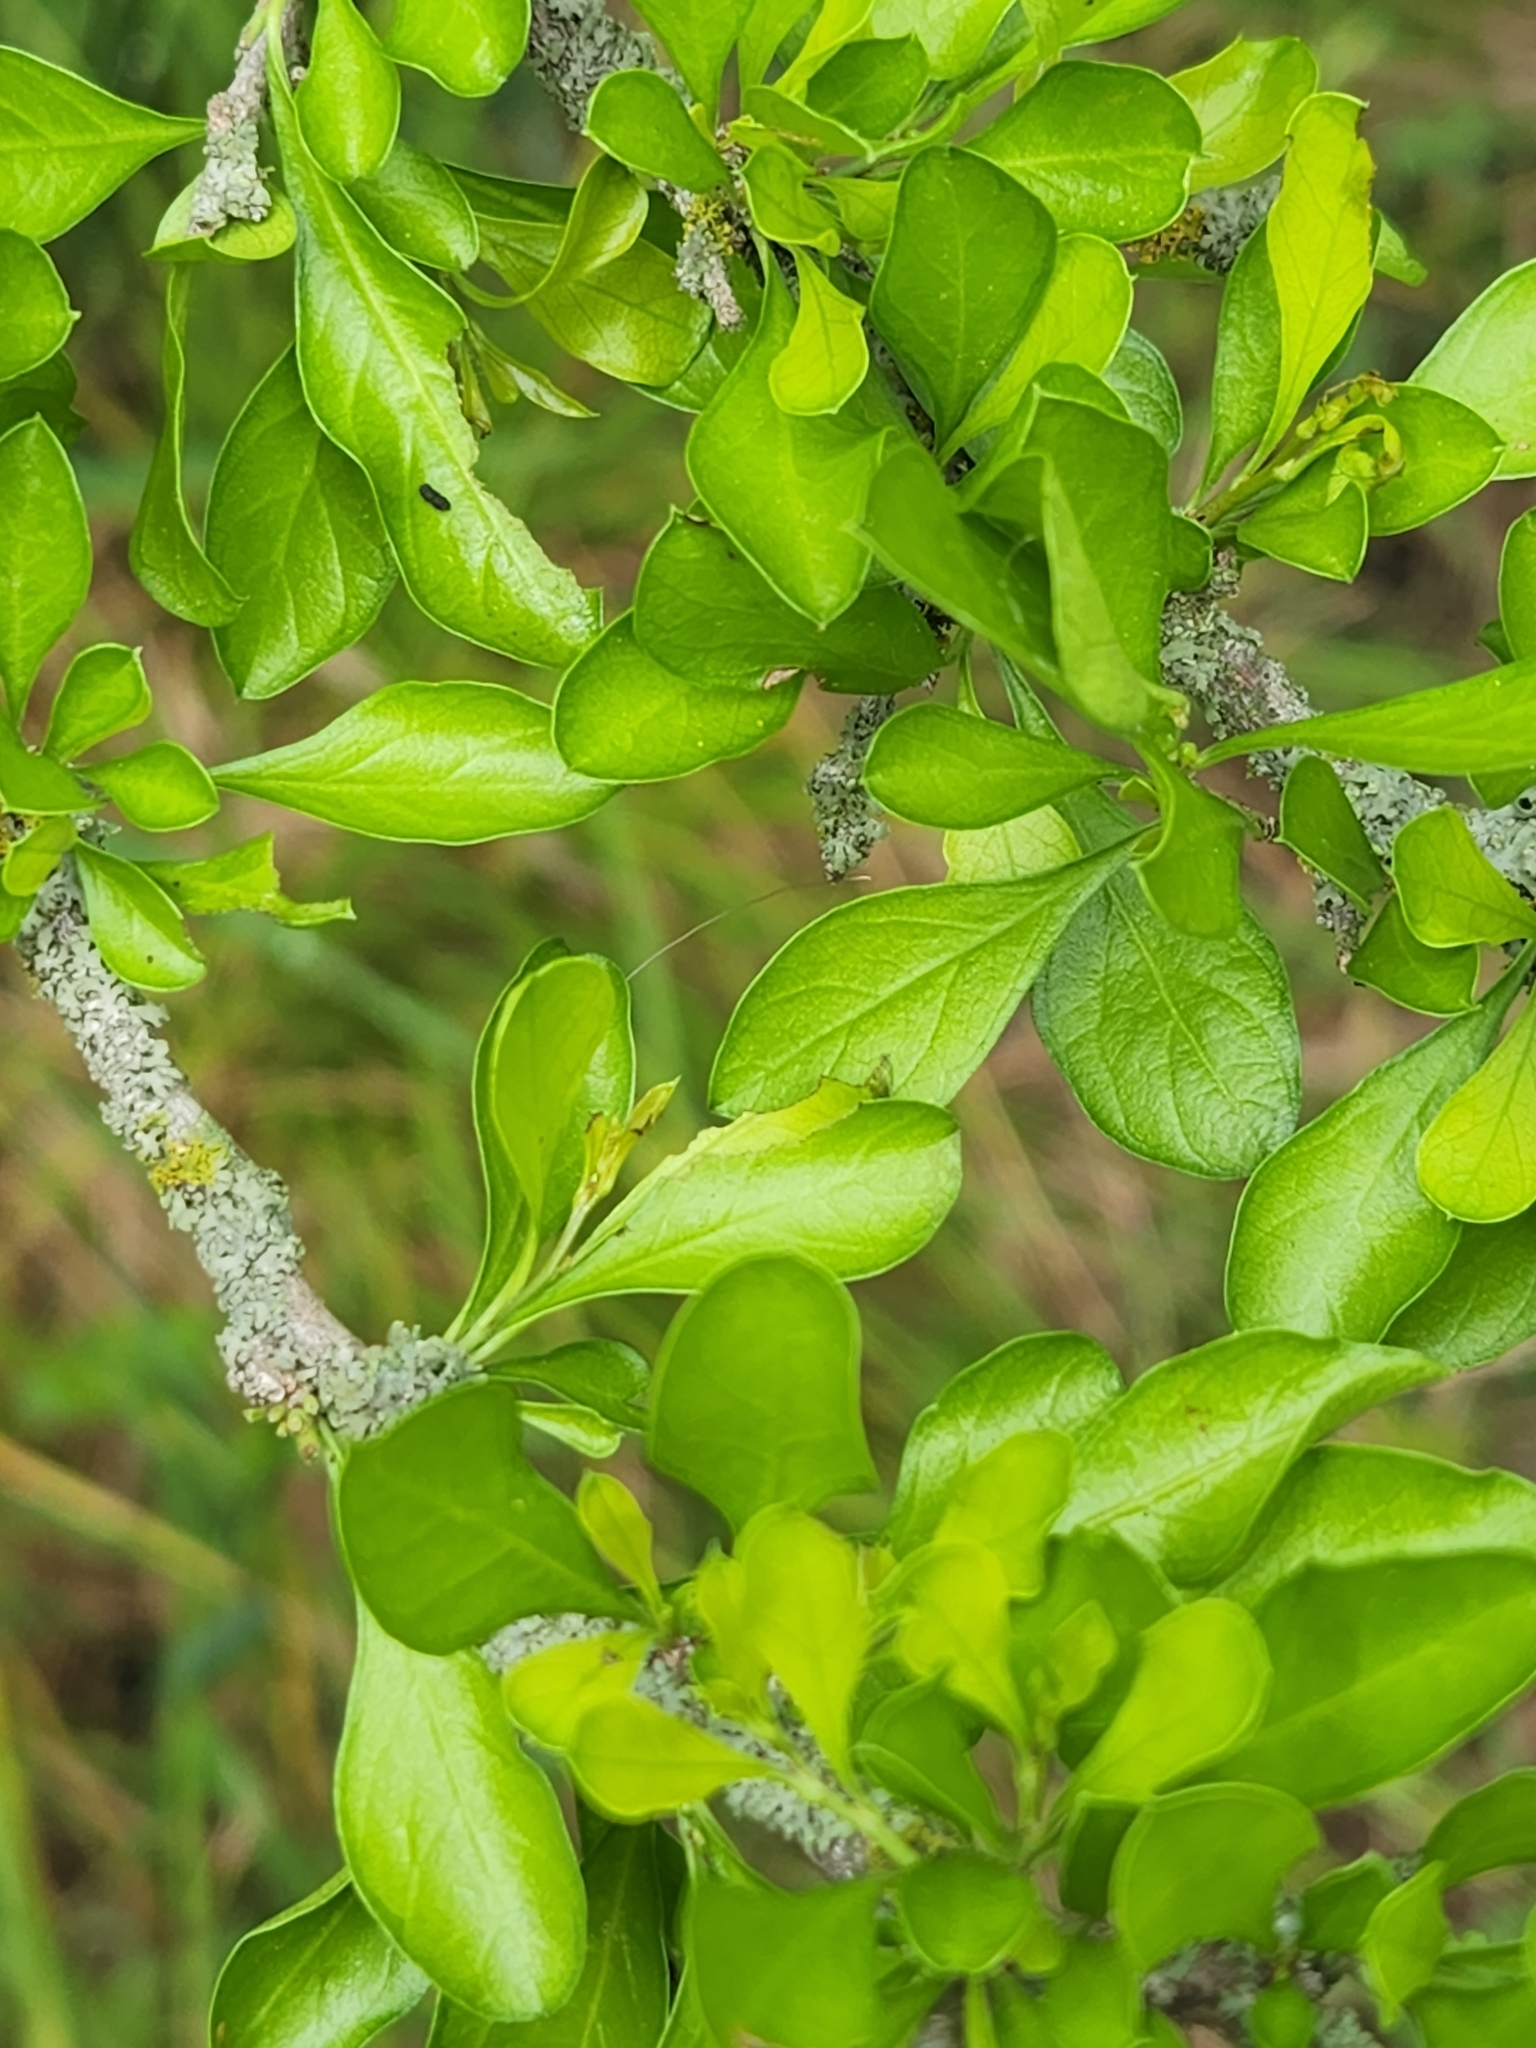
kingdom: Plantae
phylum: Tracheophyta
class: Magnoliopsida
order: Rosales
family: Rhamnaceae
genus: Condalia
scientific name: Condalia hookeri
